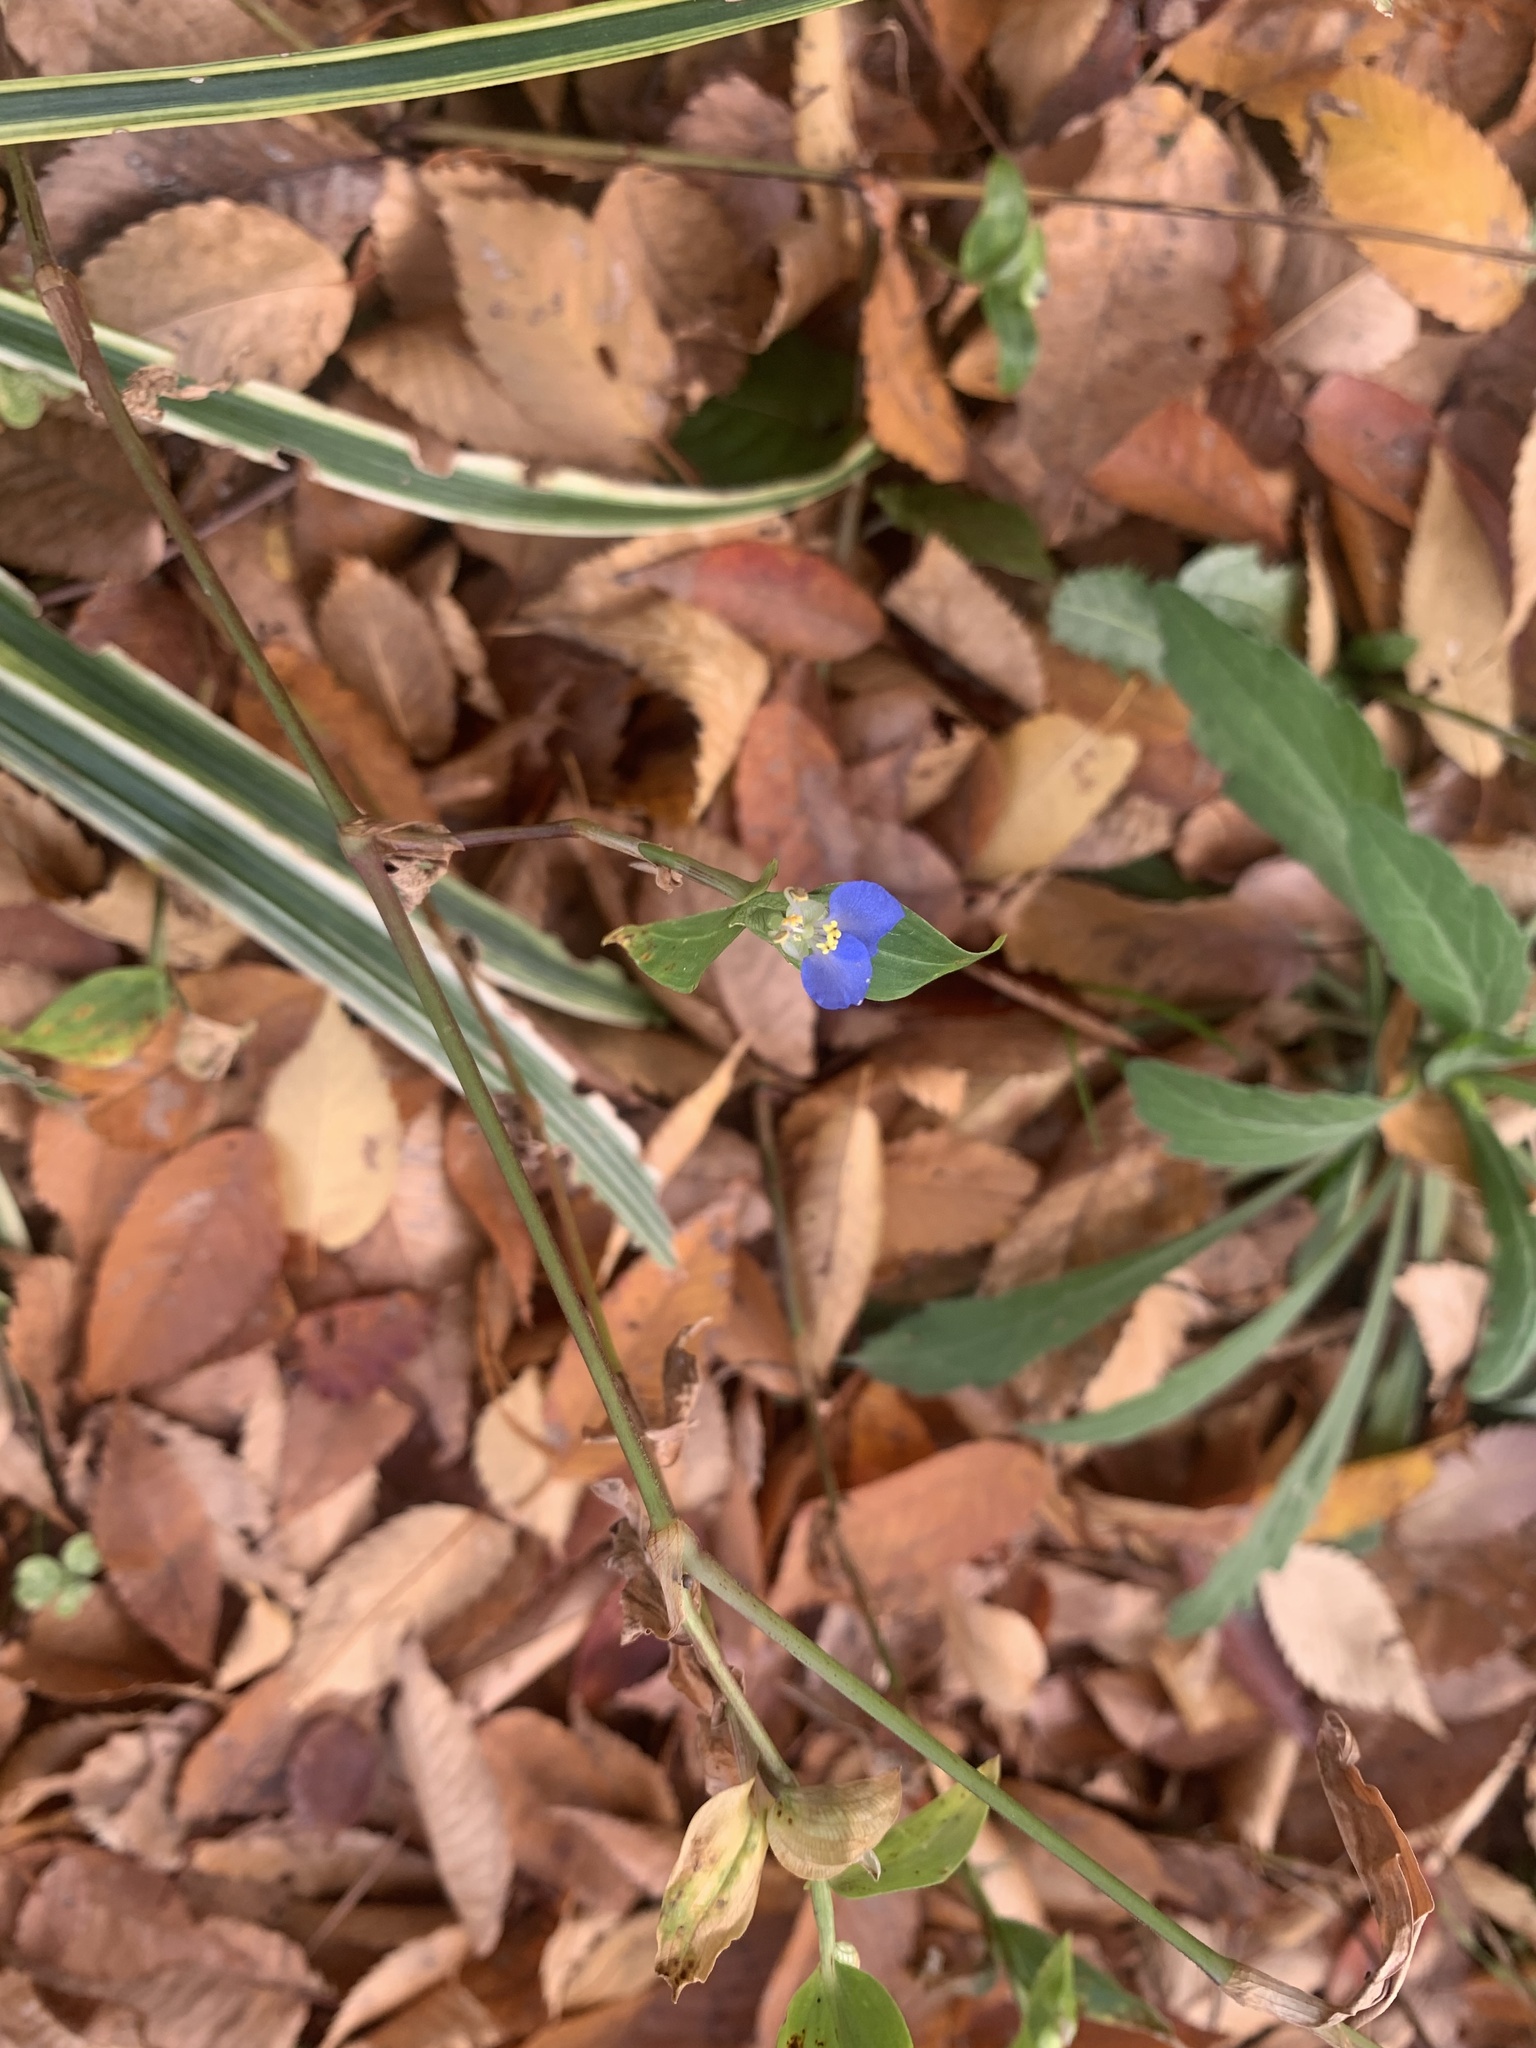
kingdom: Plantae
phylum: Tracheophyta
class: Liliopsida
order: Commelinales
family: Commelinaceae
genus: Commelina
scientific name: Commelina communis
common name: Asiatic dayflower
